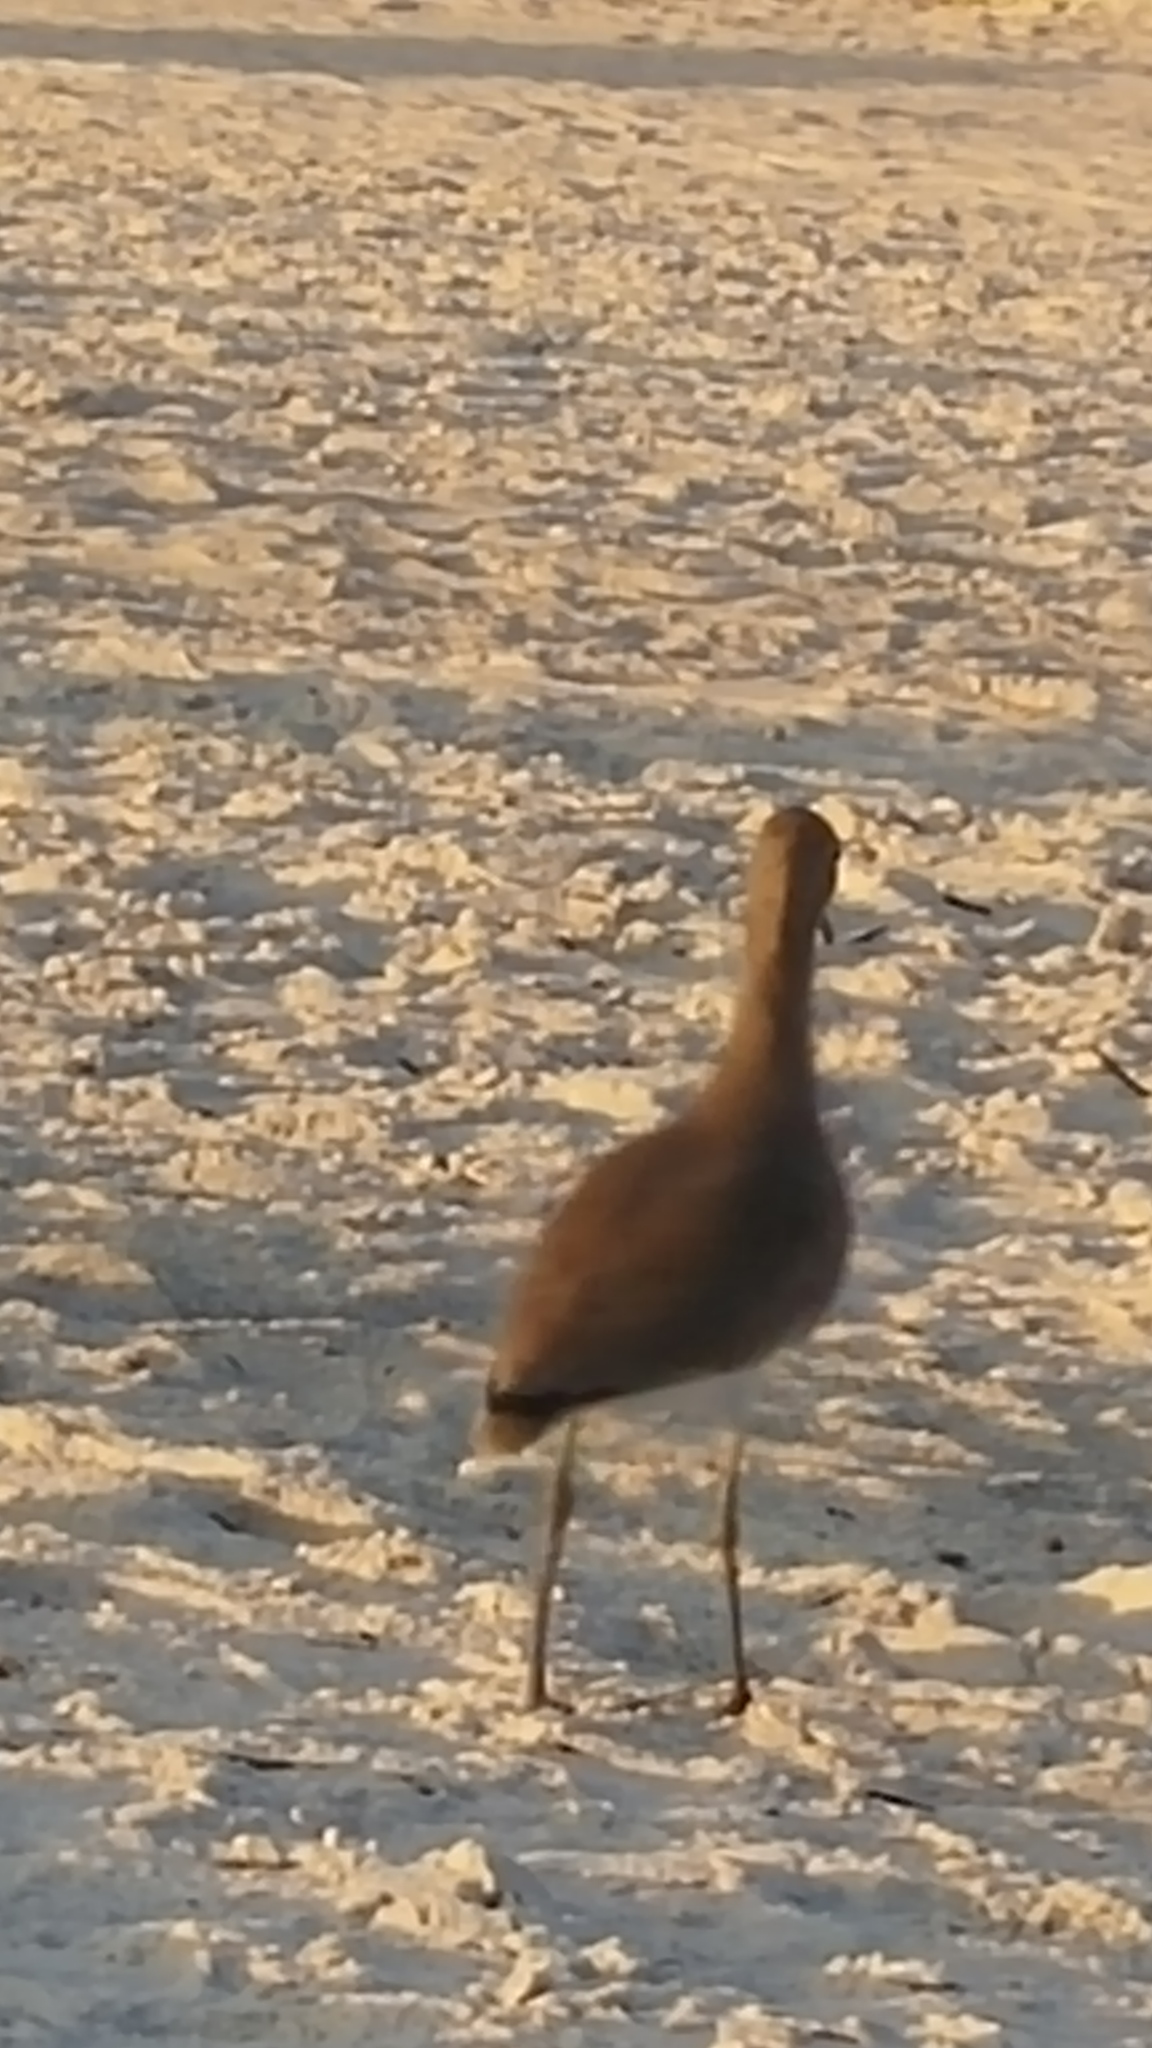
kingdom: Animalia
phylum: Chordata
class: Aves
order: Charadriiformes
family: Scolopacidae
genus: Tringa
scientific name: Tringa semipalmata
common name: Willet
